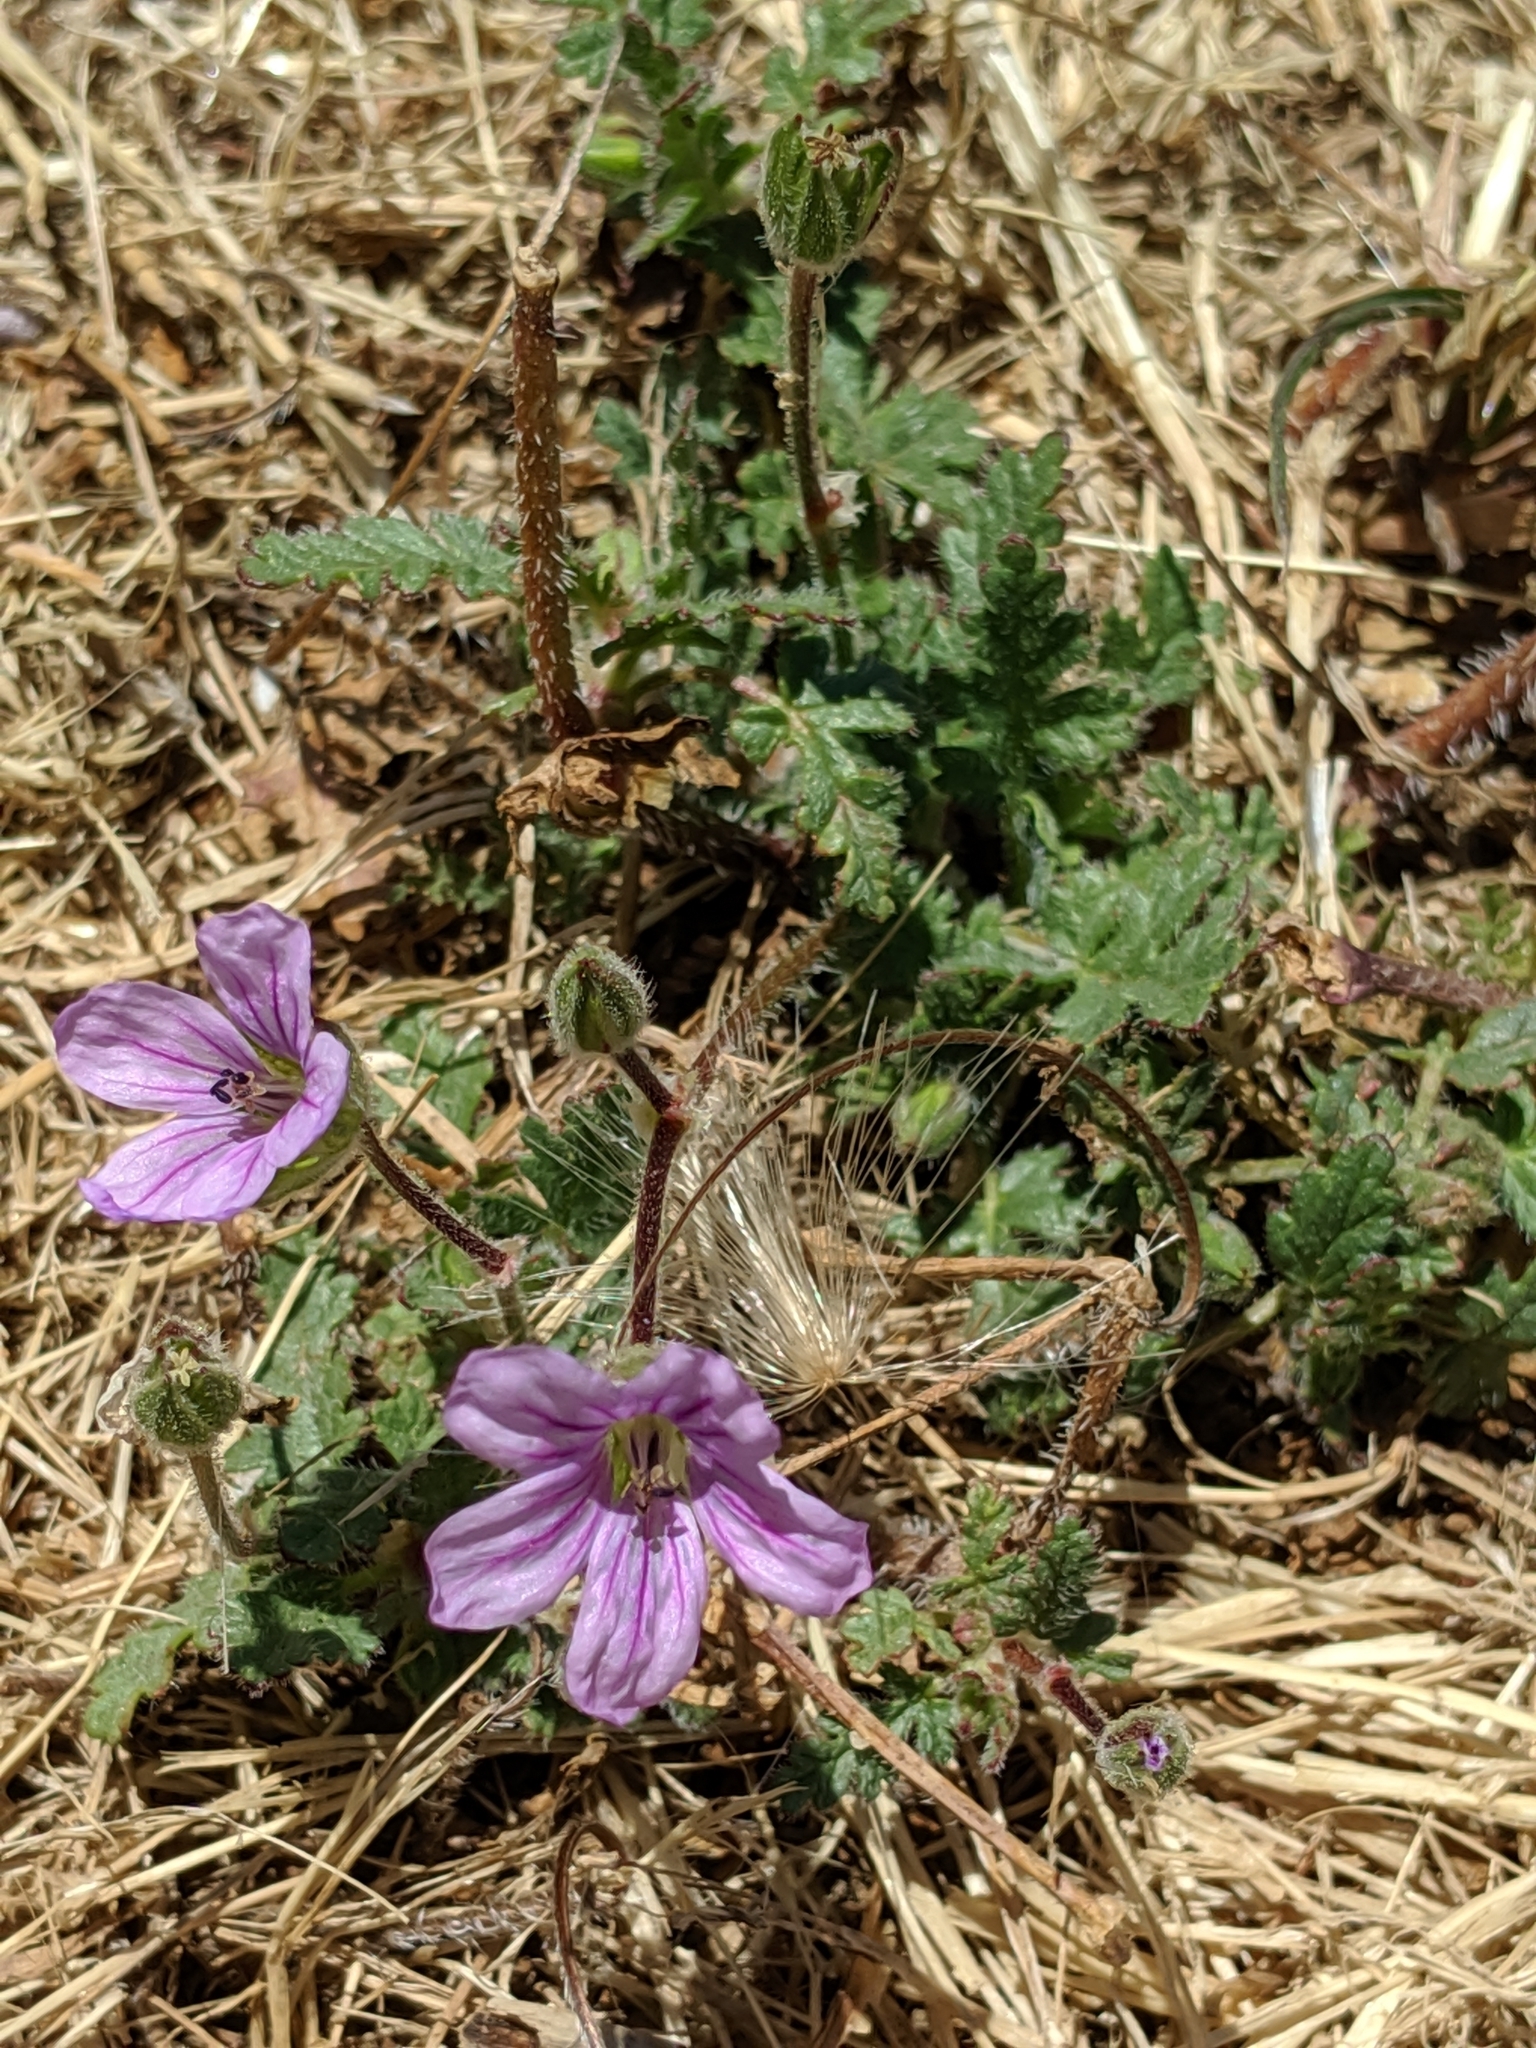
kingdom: Plantae
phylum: Tracheophyta
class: Magnoliopsida
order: Geraniales
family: Geraniaceae
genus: Erodium
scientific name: Erodium botrys
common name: Mediterranean stork's-bill
